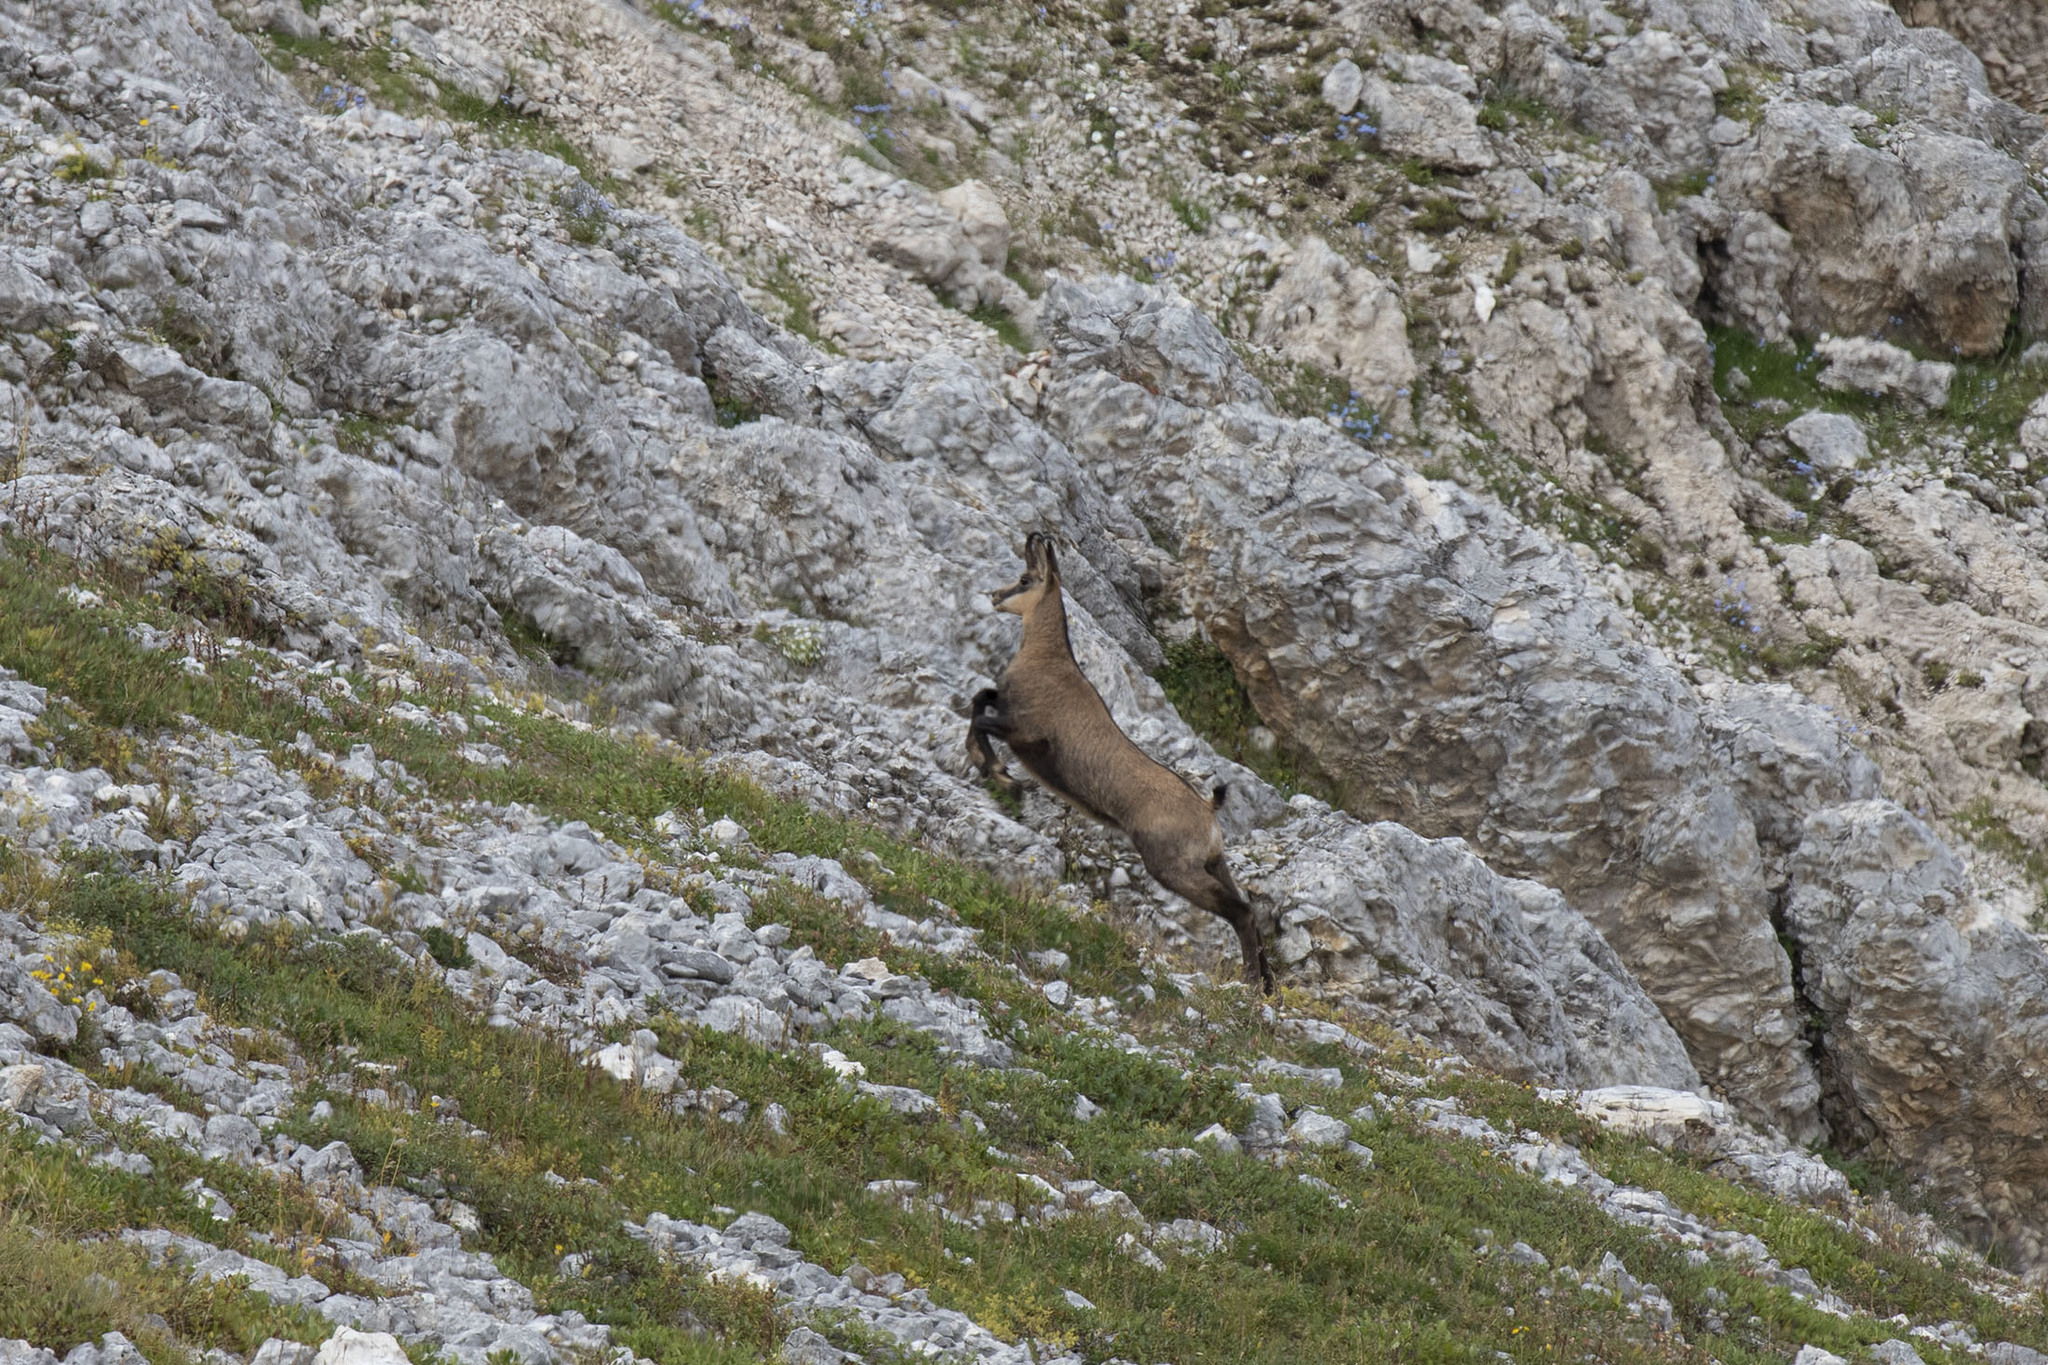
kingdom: Animalia
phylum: Chordata
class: Mammalia
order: Artiodactyla
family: Bovidae
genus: Rupicapra
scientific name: Rupicapra rupicapra
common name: Chamois
